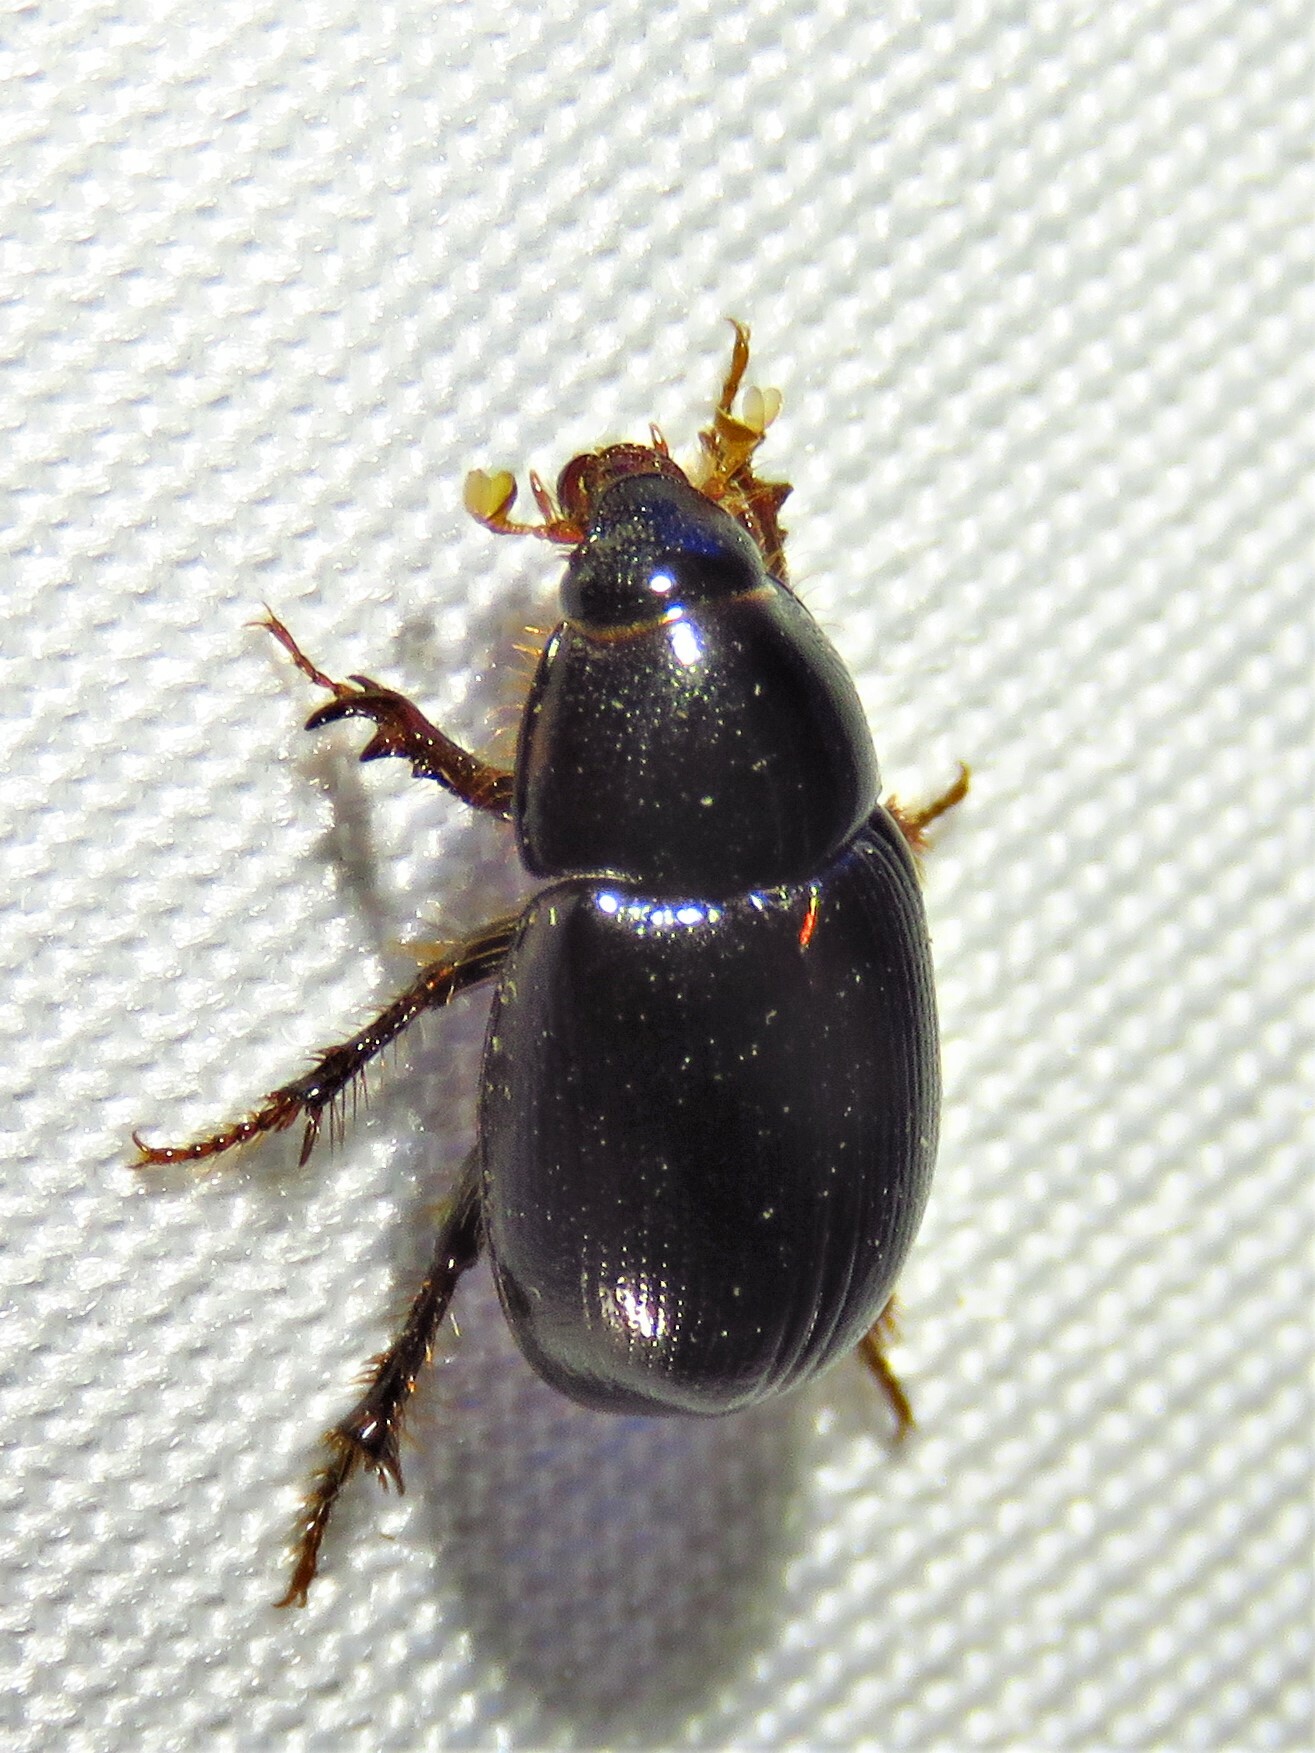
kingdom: Animalia
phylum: Arthropoda
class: Insecta
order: Coleoptera
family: Hybosoridae
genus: Hybosorus
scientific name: Hybosorus illigeri
